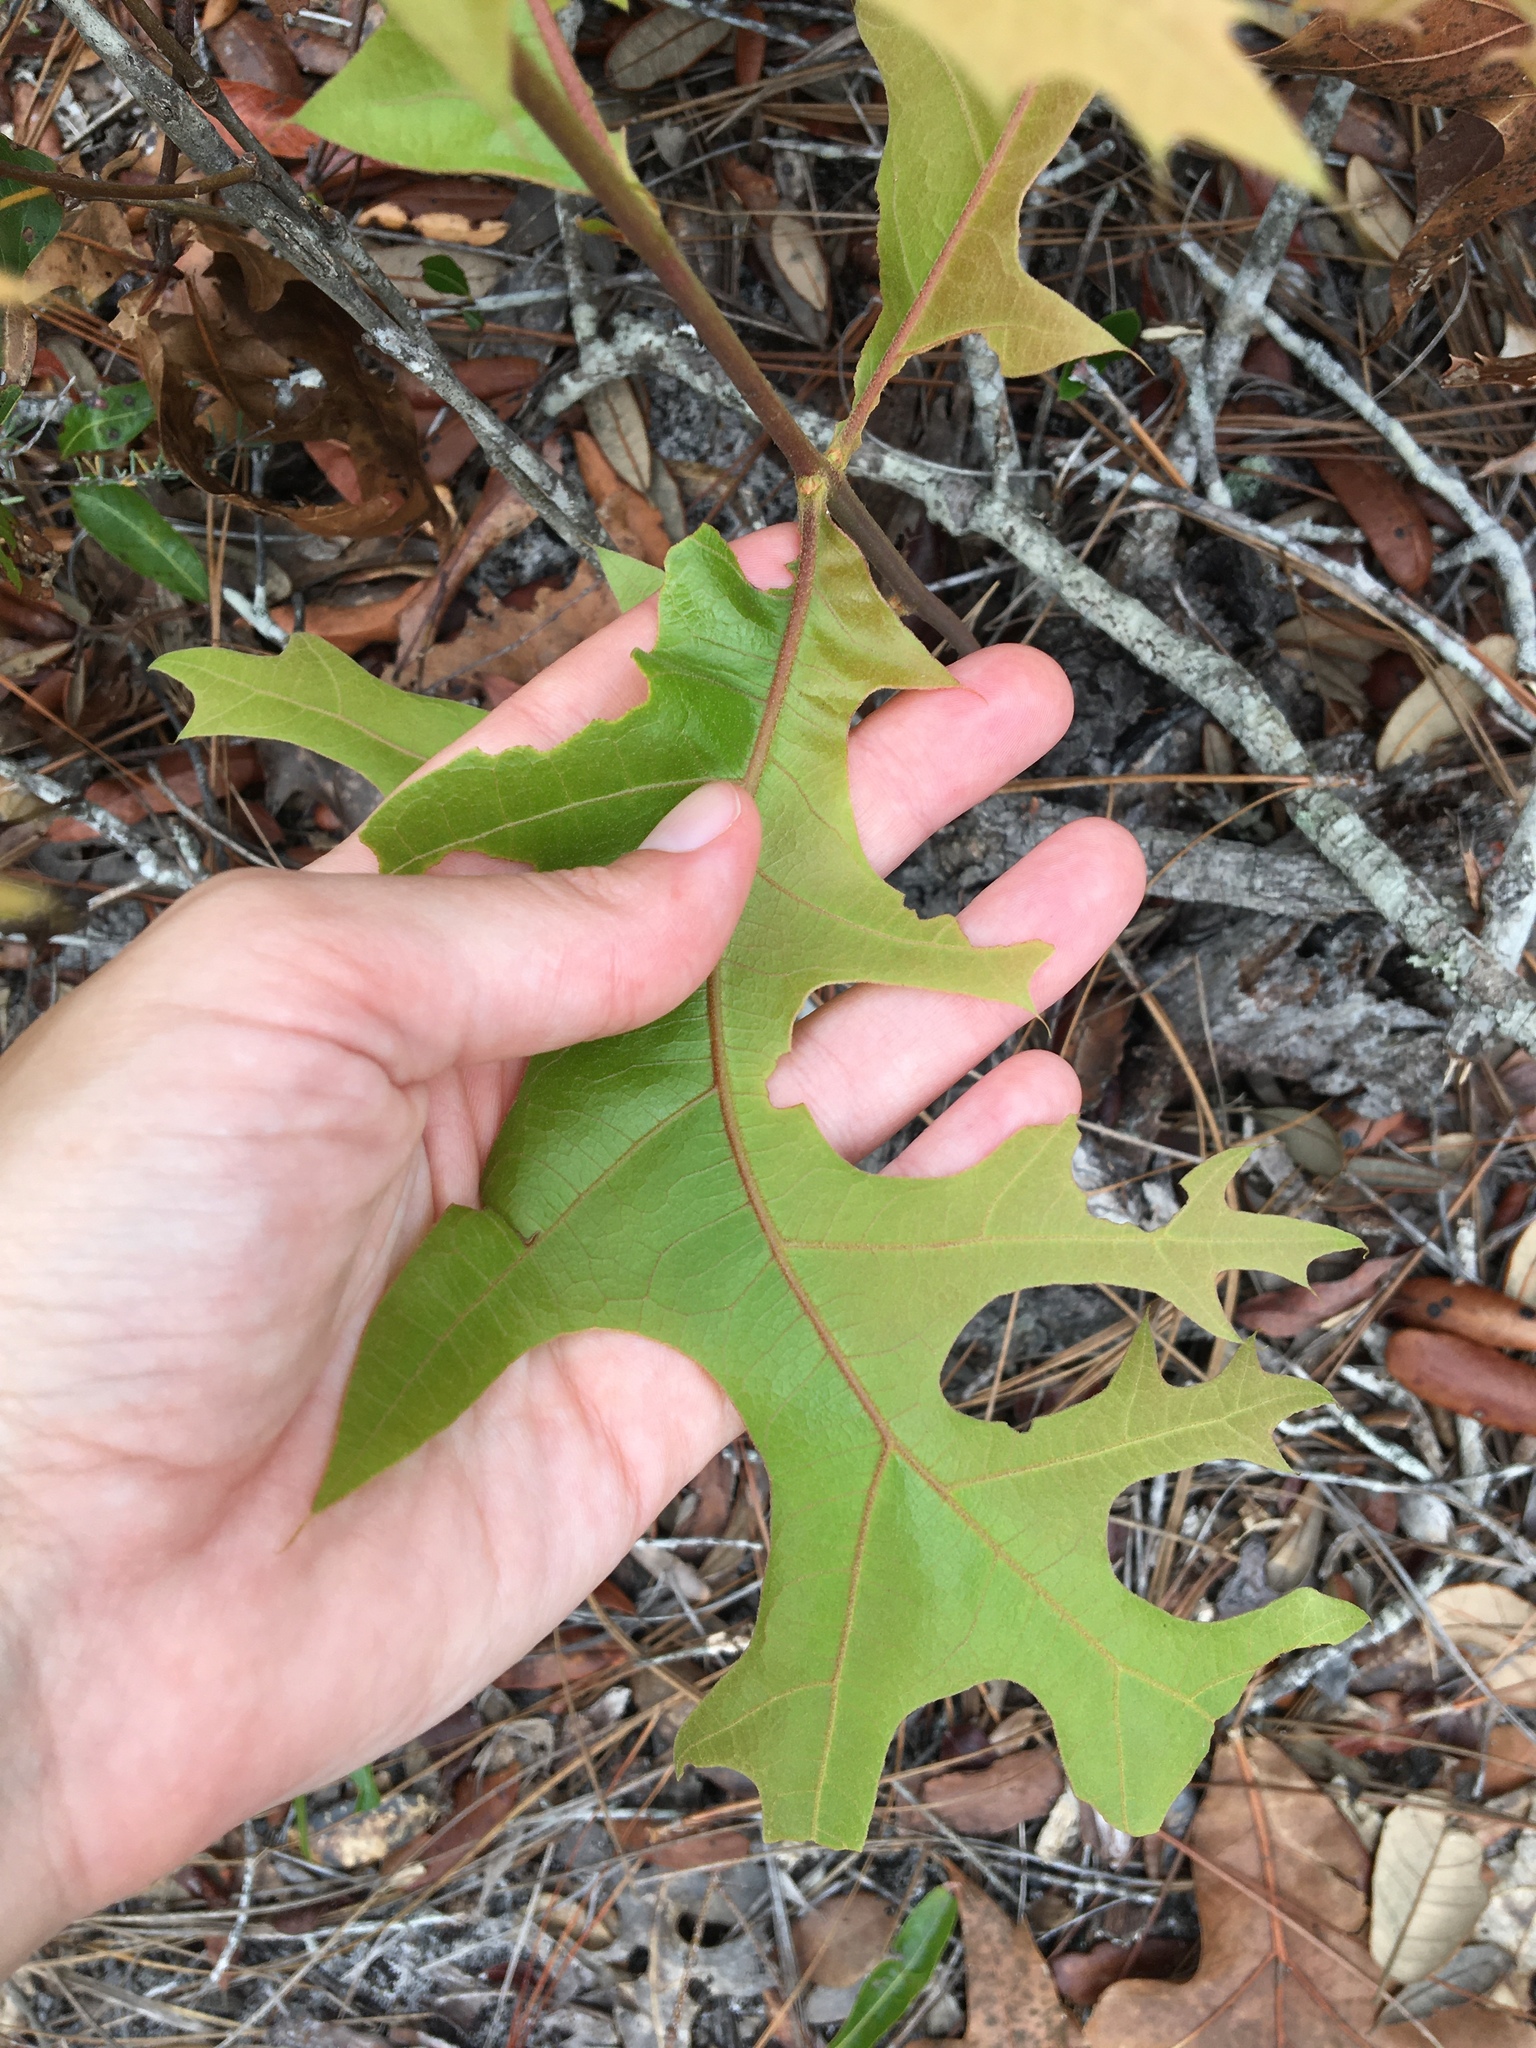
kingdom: Plantae
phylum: Tracheophyta
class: Magnoliopsida
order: Fagales
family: Fagaceae
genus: Quercus
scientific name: Quercus laevis
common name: Turkey oak
